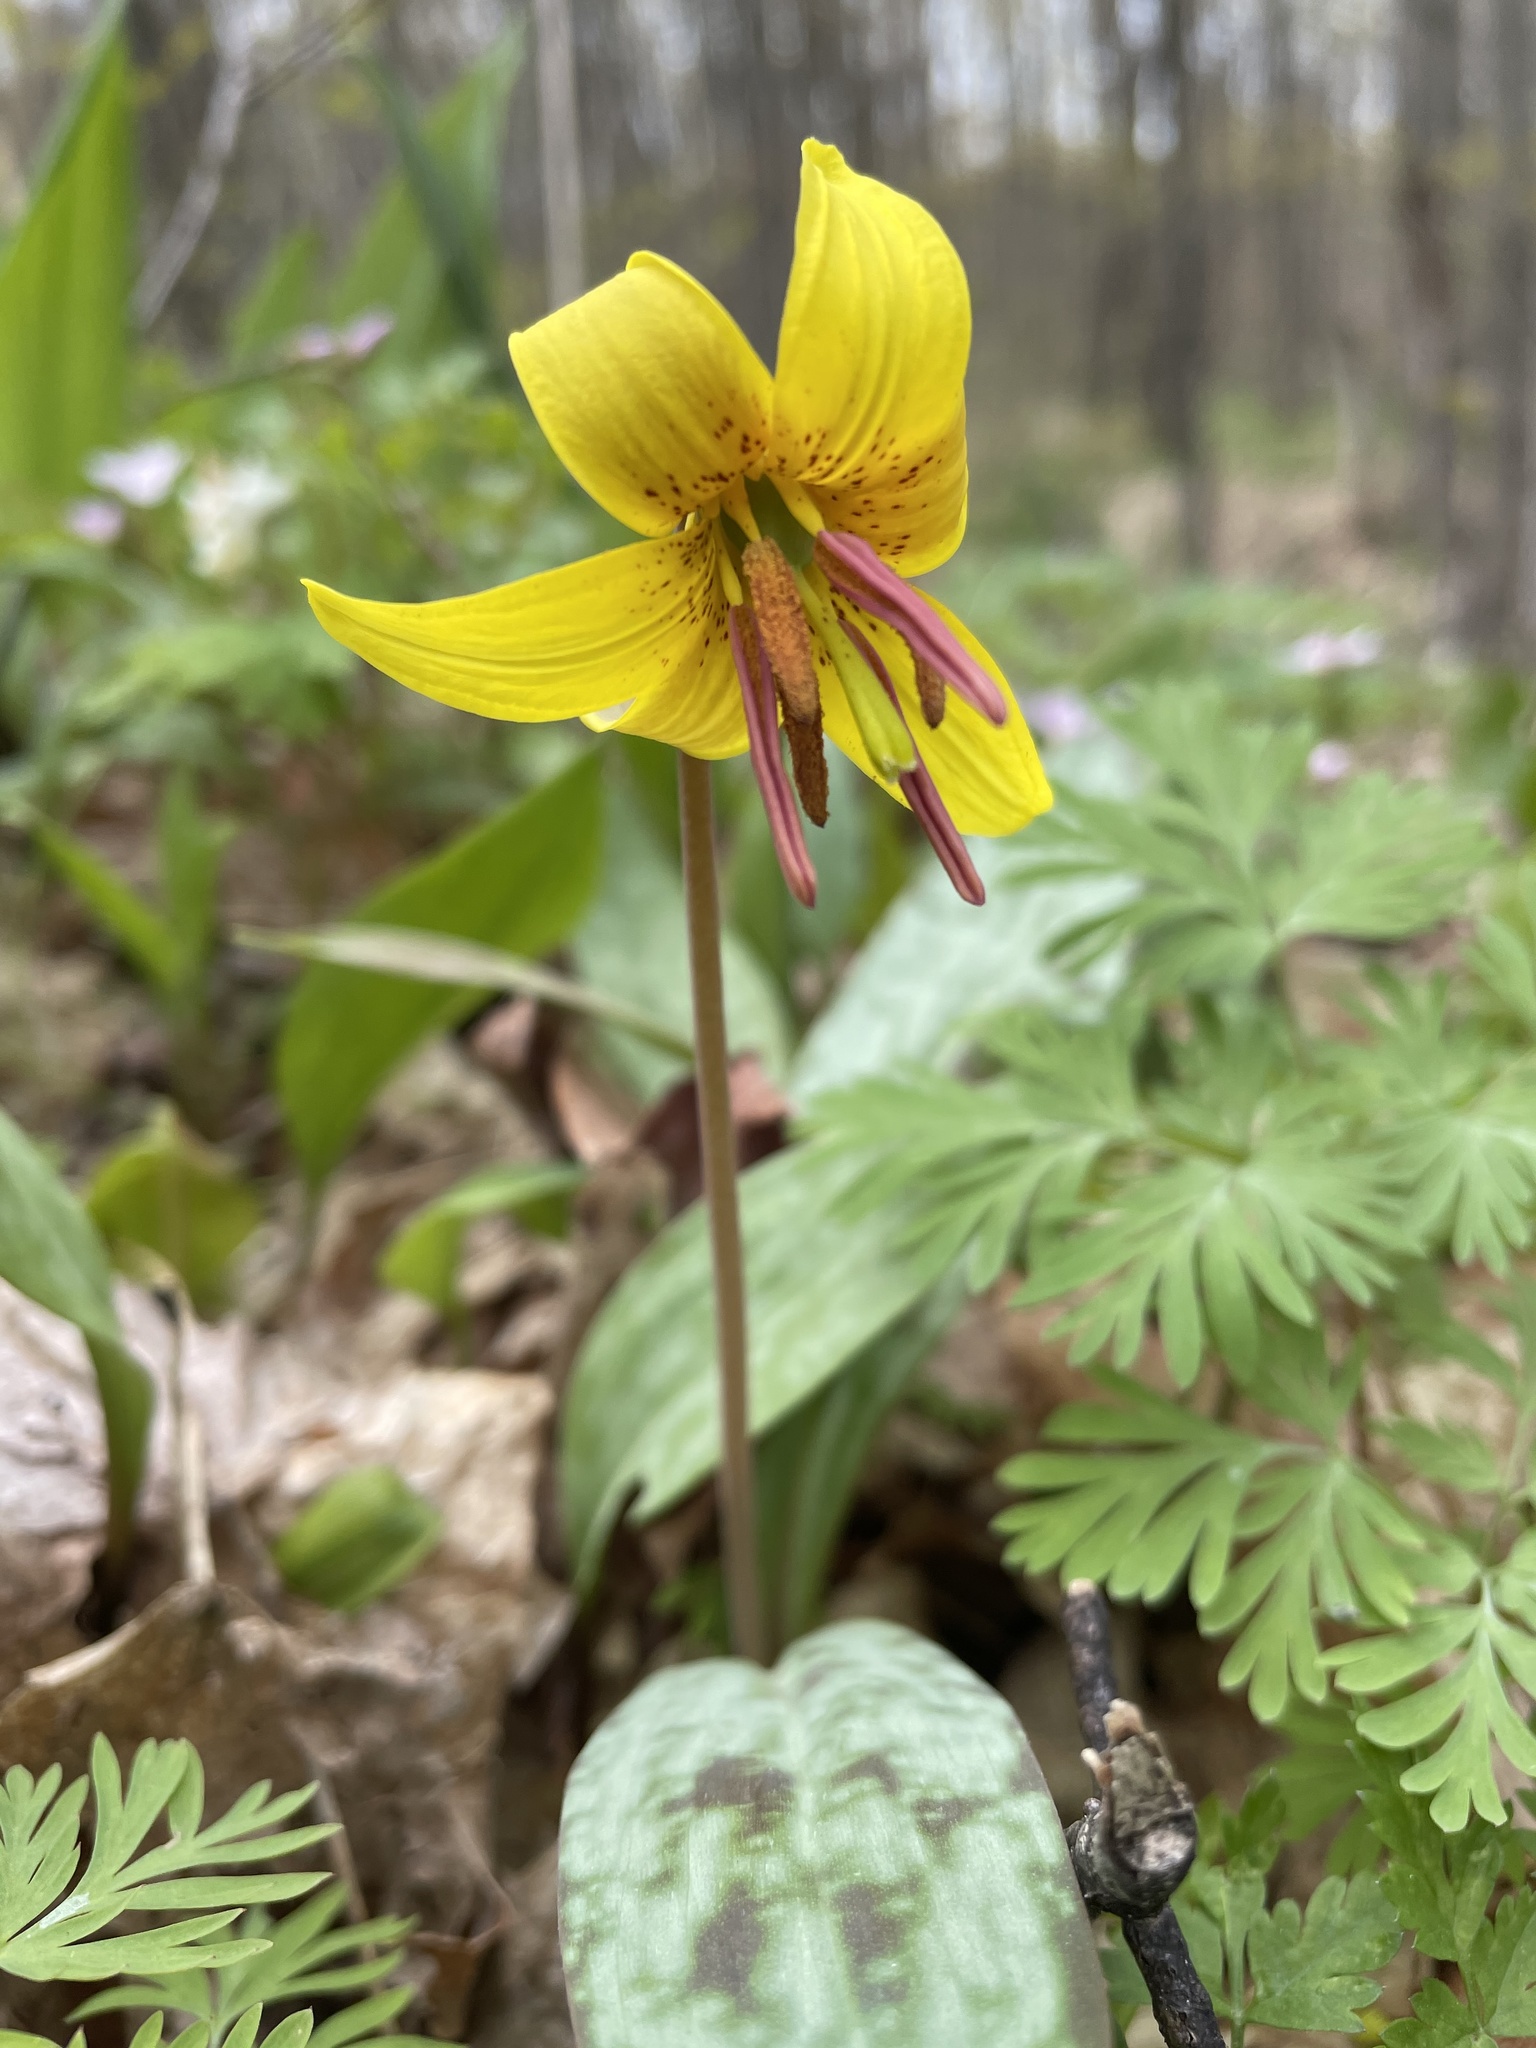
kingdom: Plantae
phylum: Tracheophyta
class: Liliopsida
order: Liliales
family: Liliaceae
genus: Erythronium
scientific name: Erythronium americanum
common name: Yellow adder's-tongue
